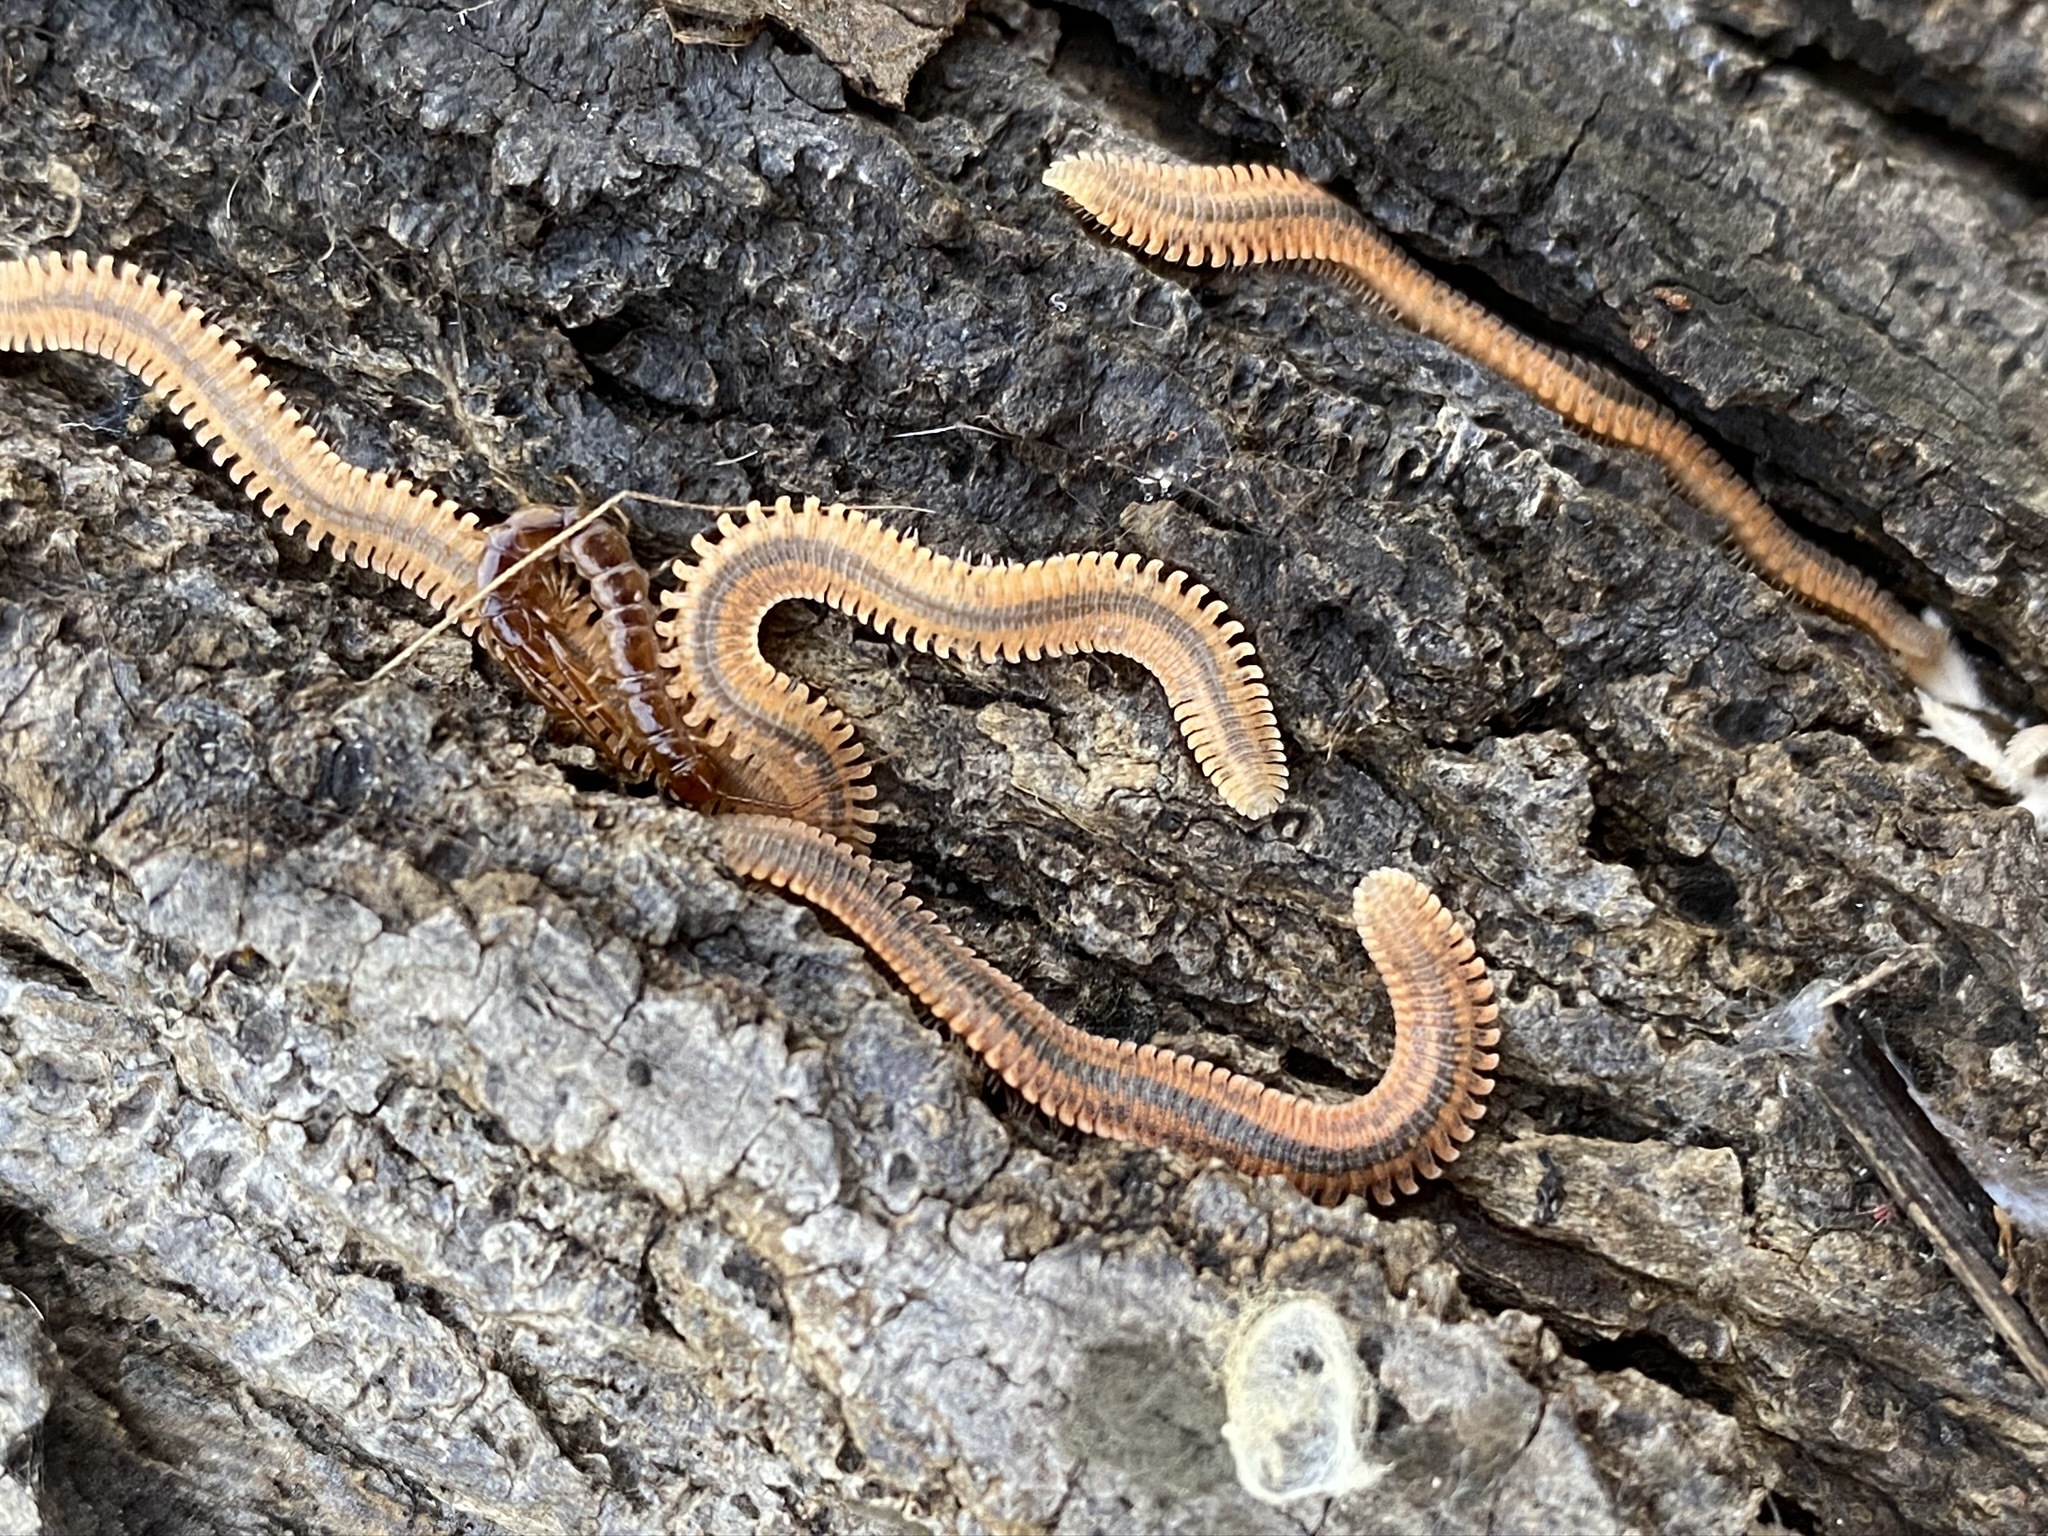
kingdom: Animalia
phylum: Arthropoda
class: Diplopoda
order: Platydesmida
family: Andrognathidae
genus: Brachycybe
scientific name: Brachycybe producta
